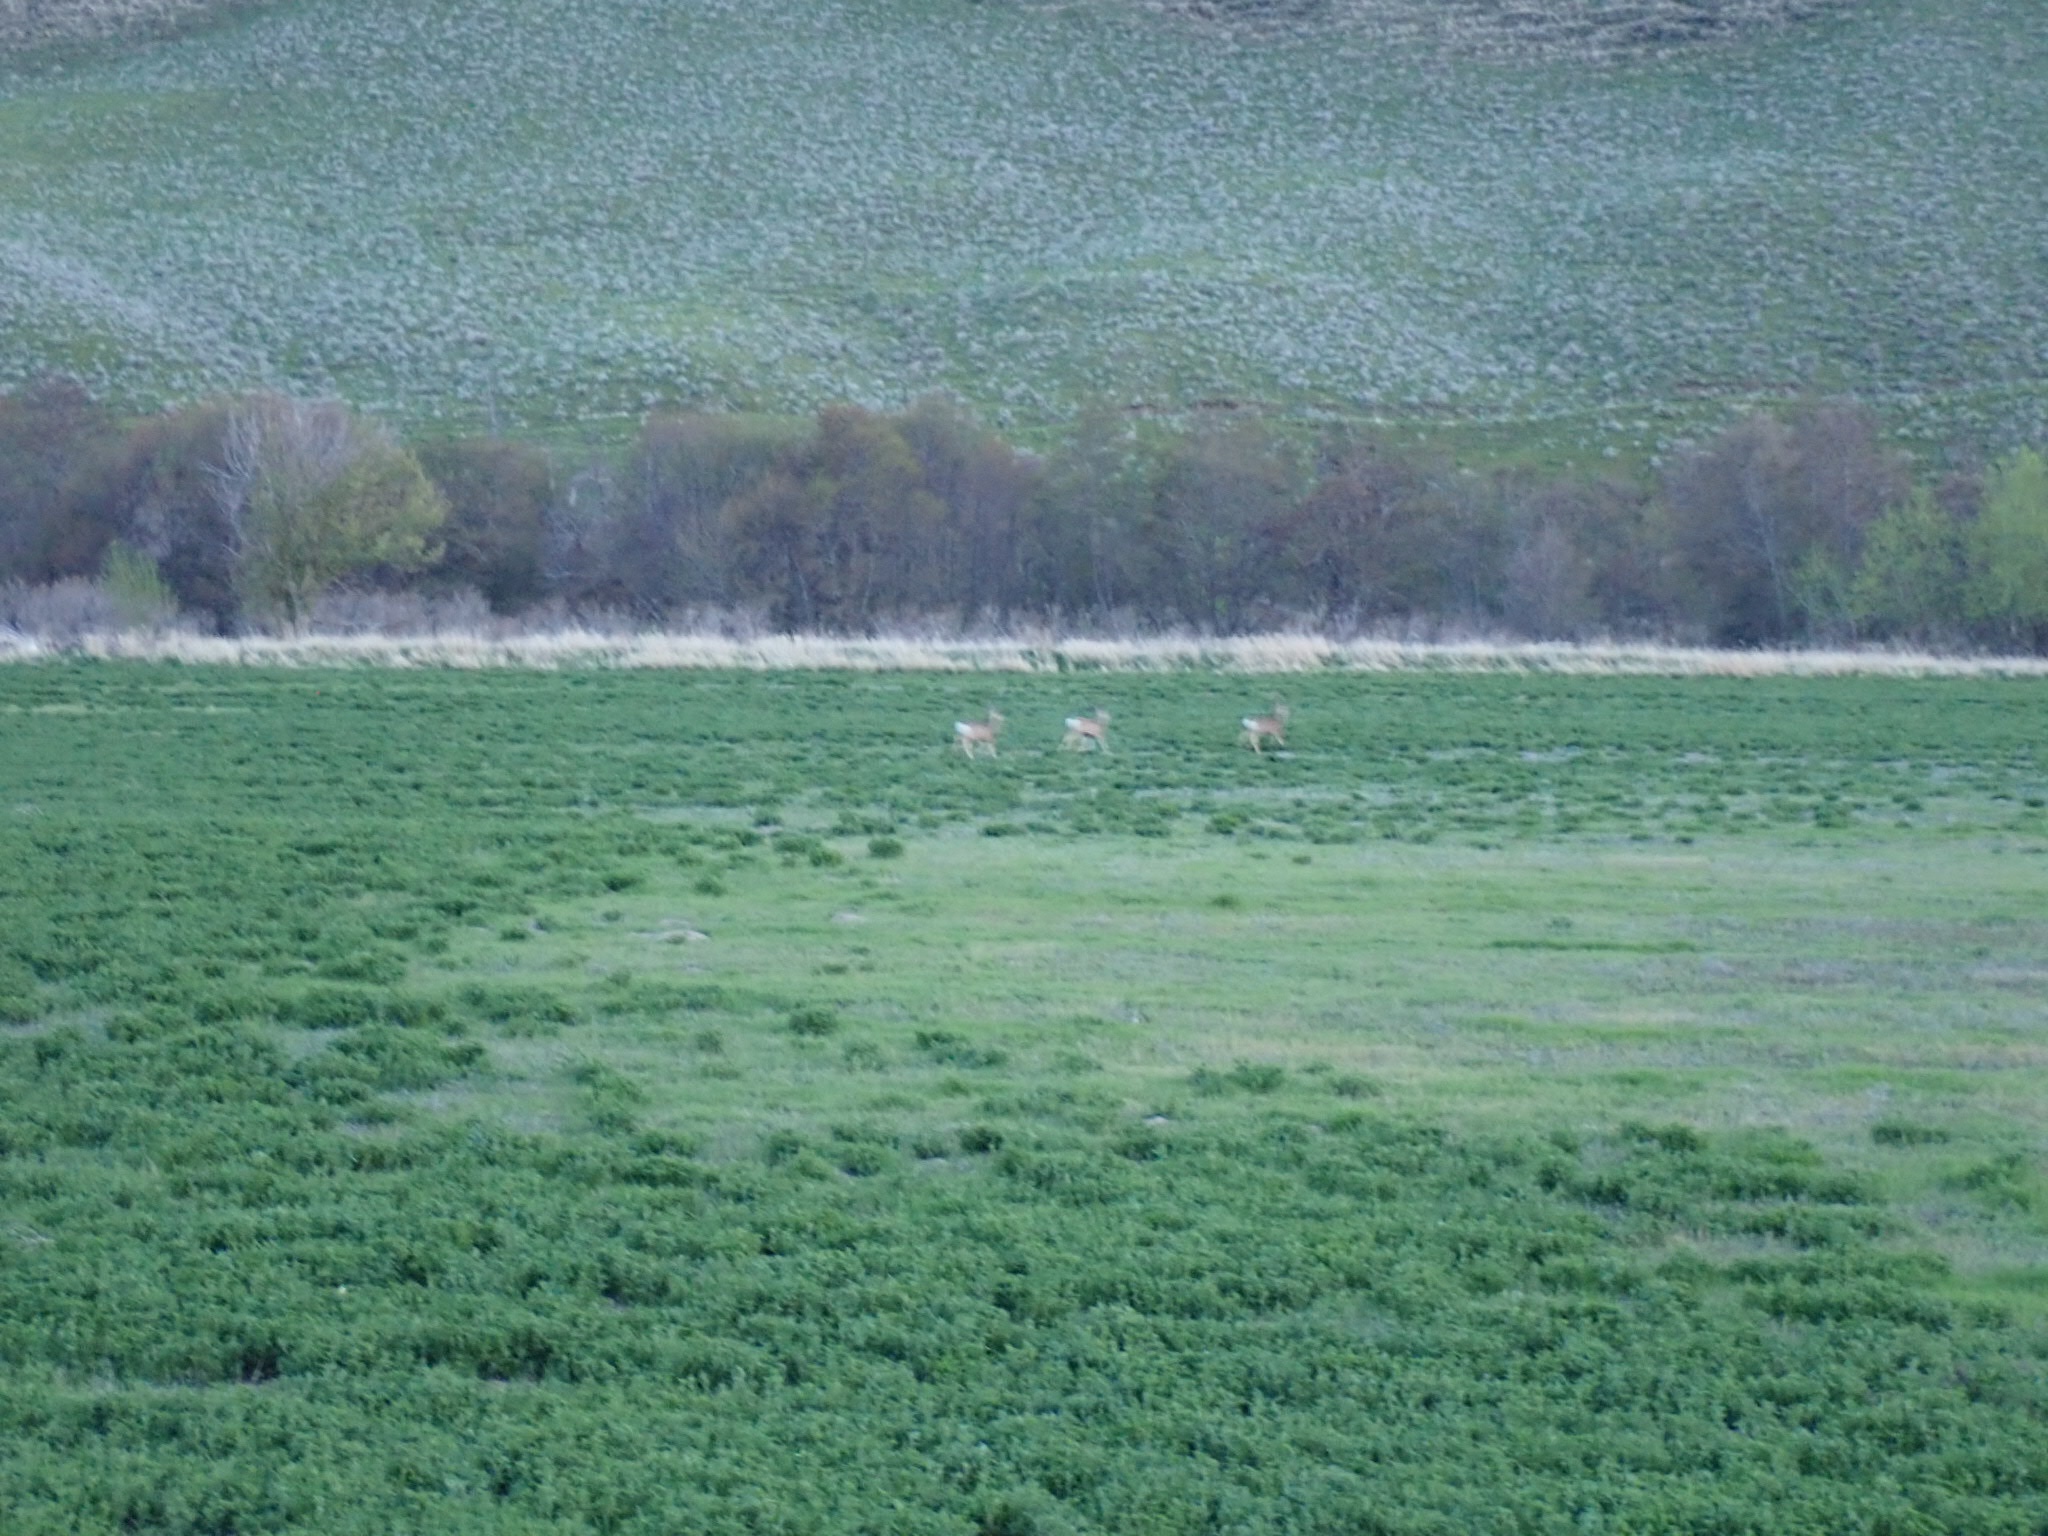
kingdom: Animalia
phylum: Chordata
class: Mammalia
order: Artiodactyla
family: Cervidae
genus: Odocoileus
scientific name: Odocoileus hemionus
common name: Mule deer
